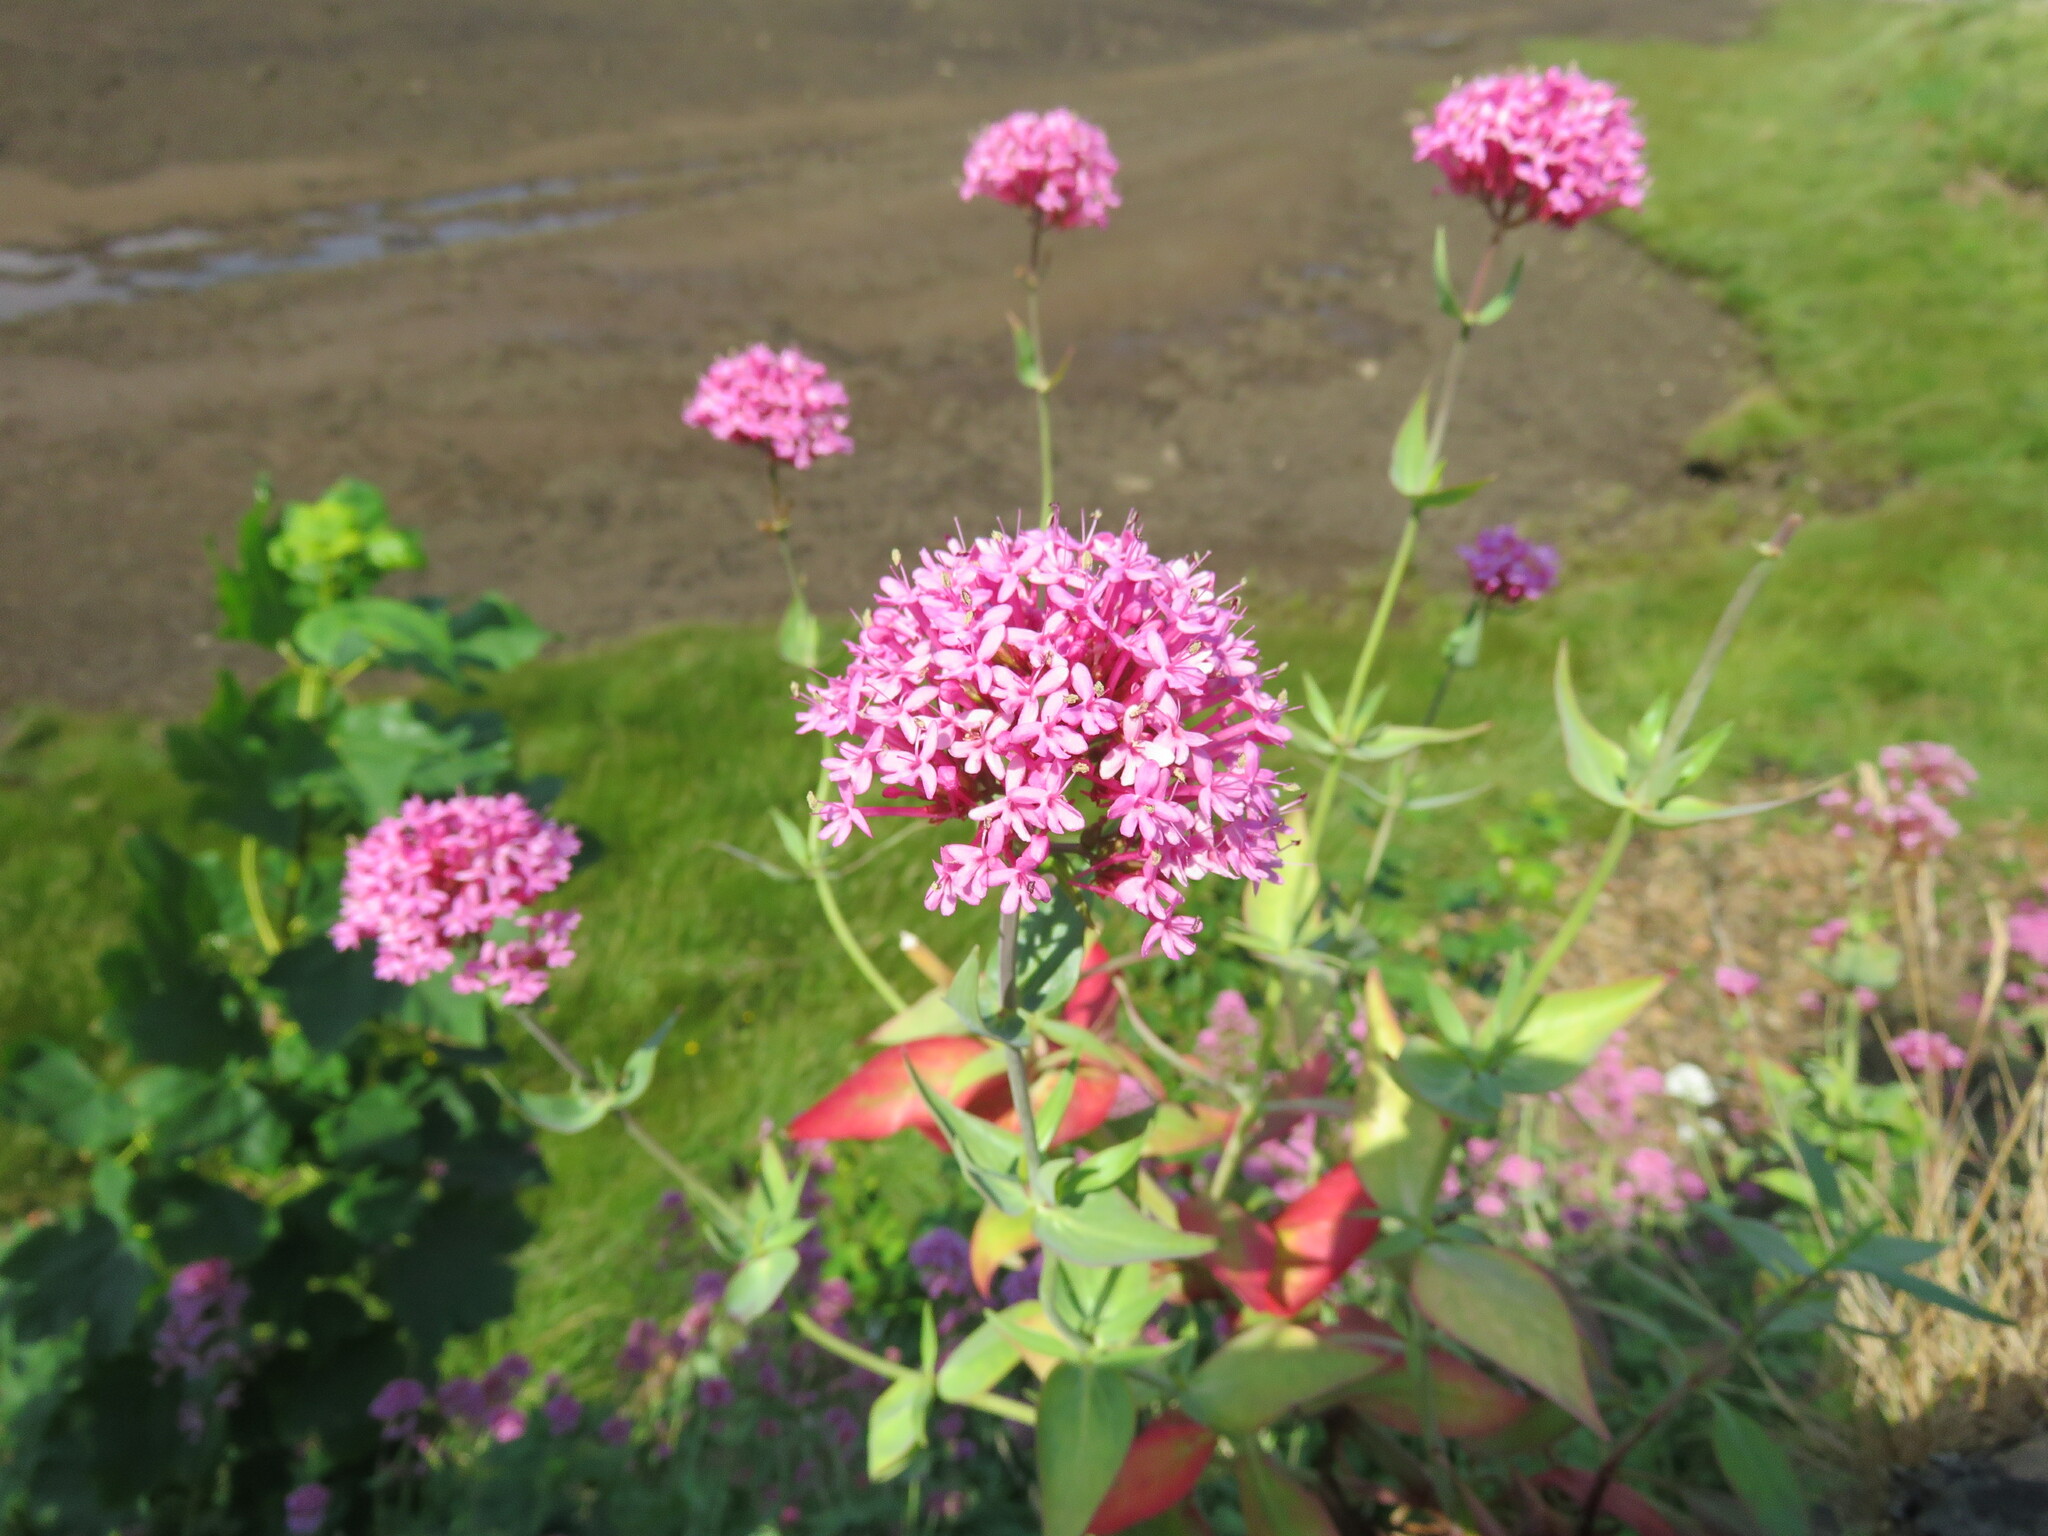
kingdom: Plantae
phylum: Tracheophyta
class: Magnoliopsida
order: Dipsacales
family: Caprifoliaceae
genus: Centranthus
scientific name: Centranthus ruber
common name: Red valerian
